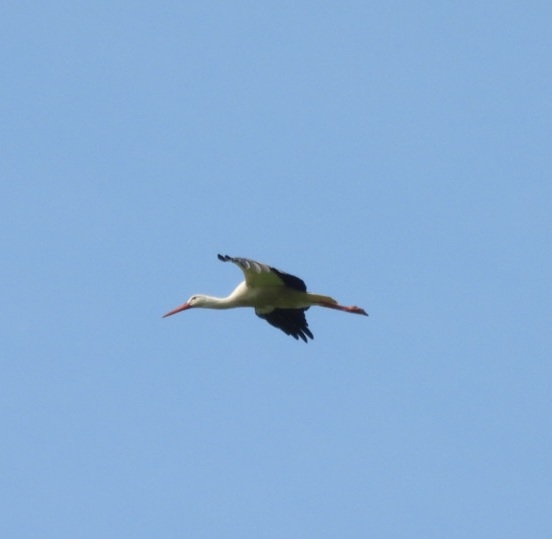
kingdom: Animalia
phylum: Chordata
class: Aves
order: Ciconiiformes
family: Ciconiidae
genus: Ciconia
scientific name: Ciconia ciconia
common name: White stork
